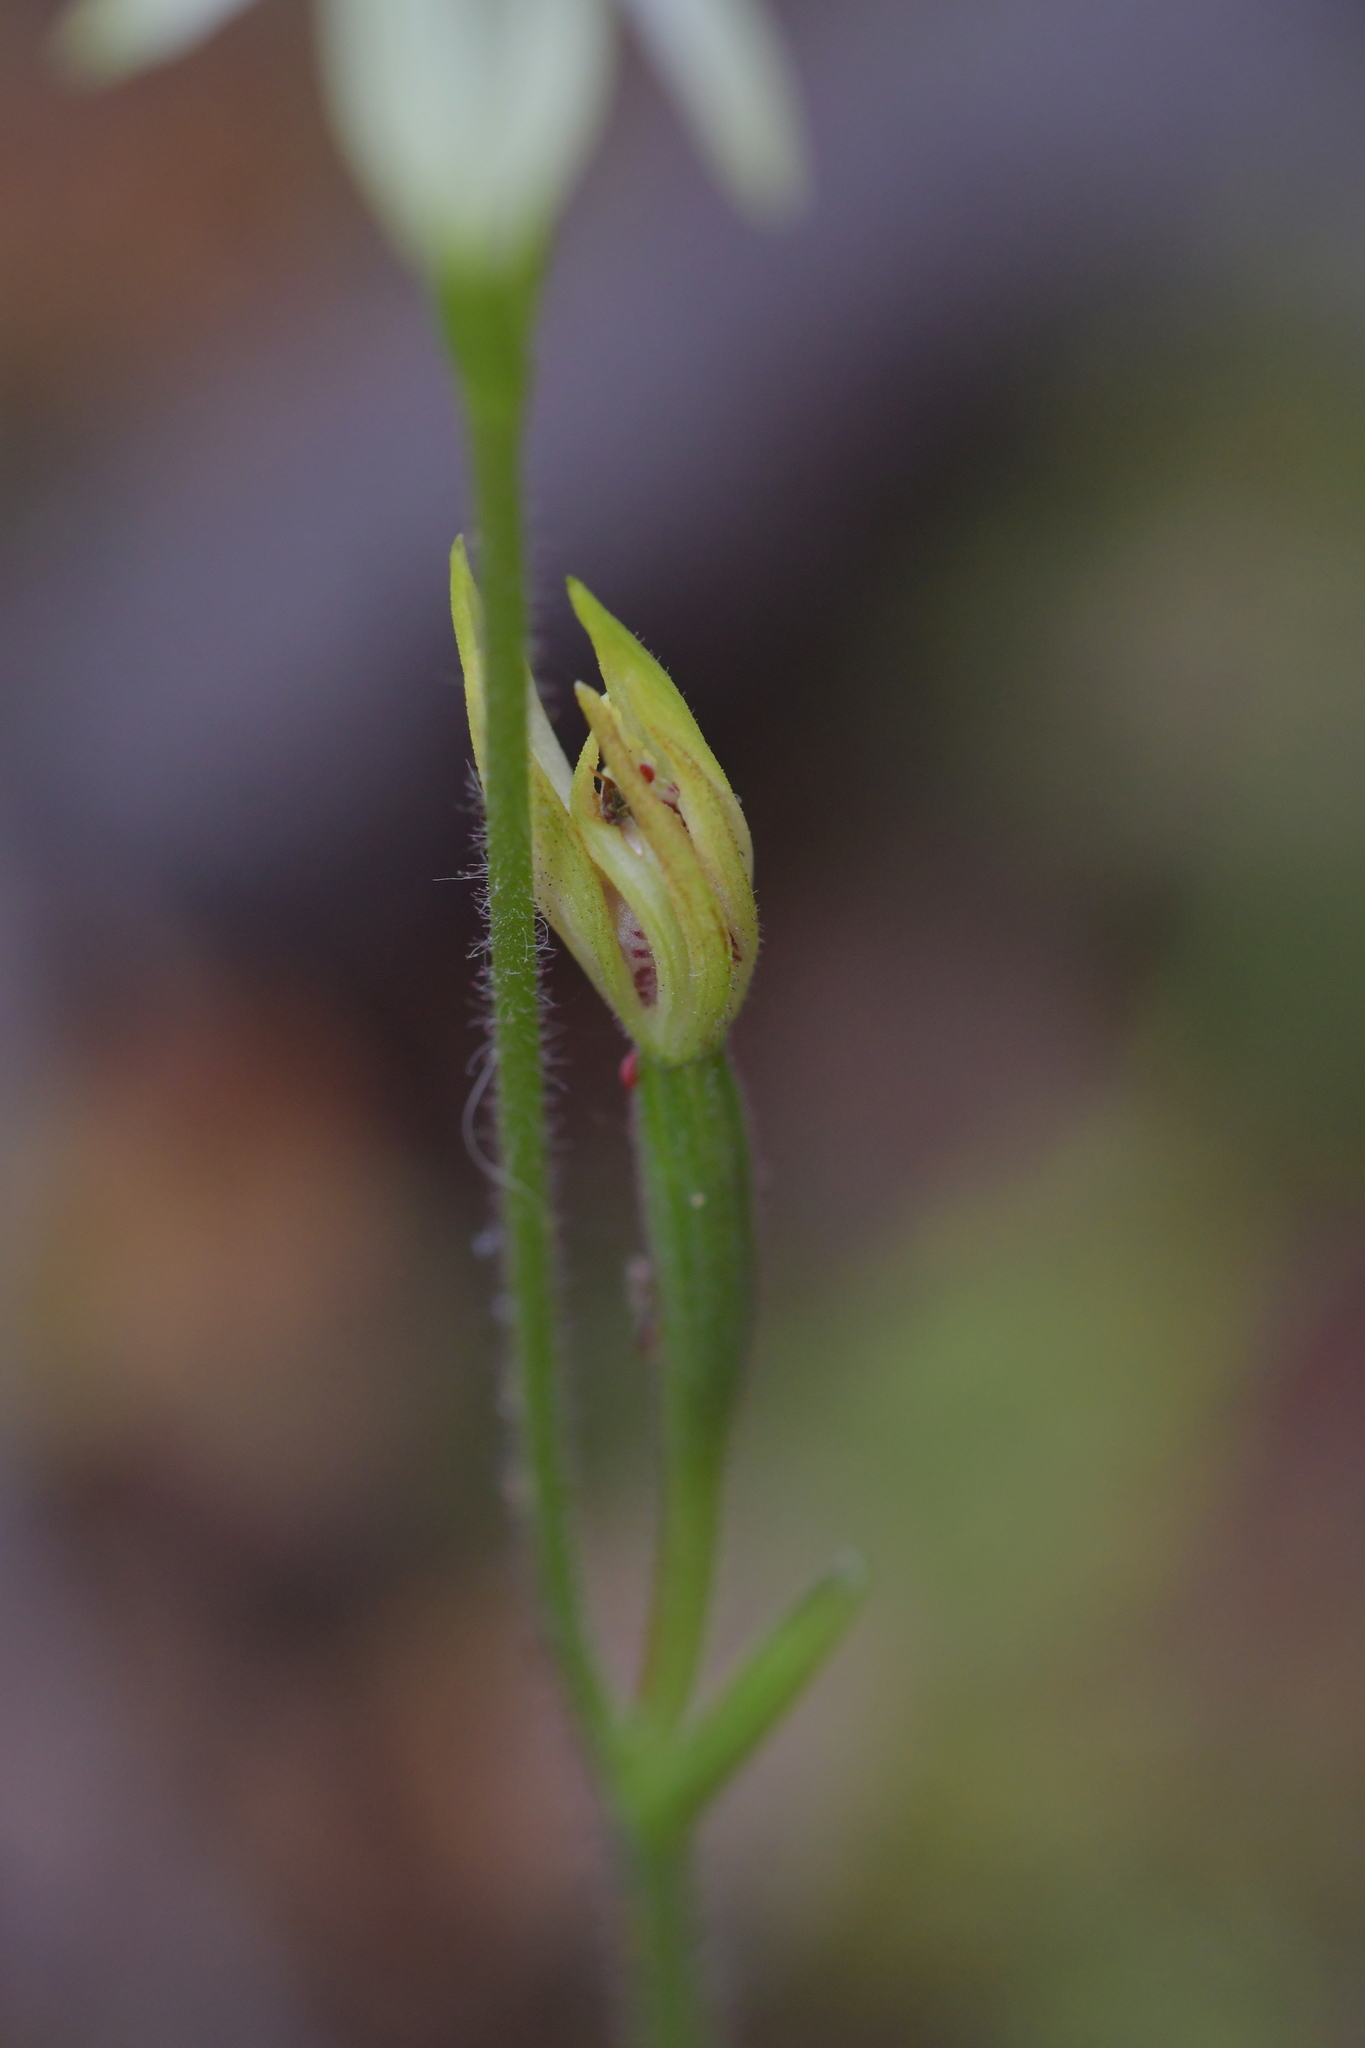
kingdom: Plantae
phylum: Tracheophyta
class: Liliopsida
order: Asparagales
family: Orchidaceae
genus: Caladenia
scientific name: Caladenia chlorostyla
